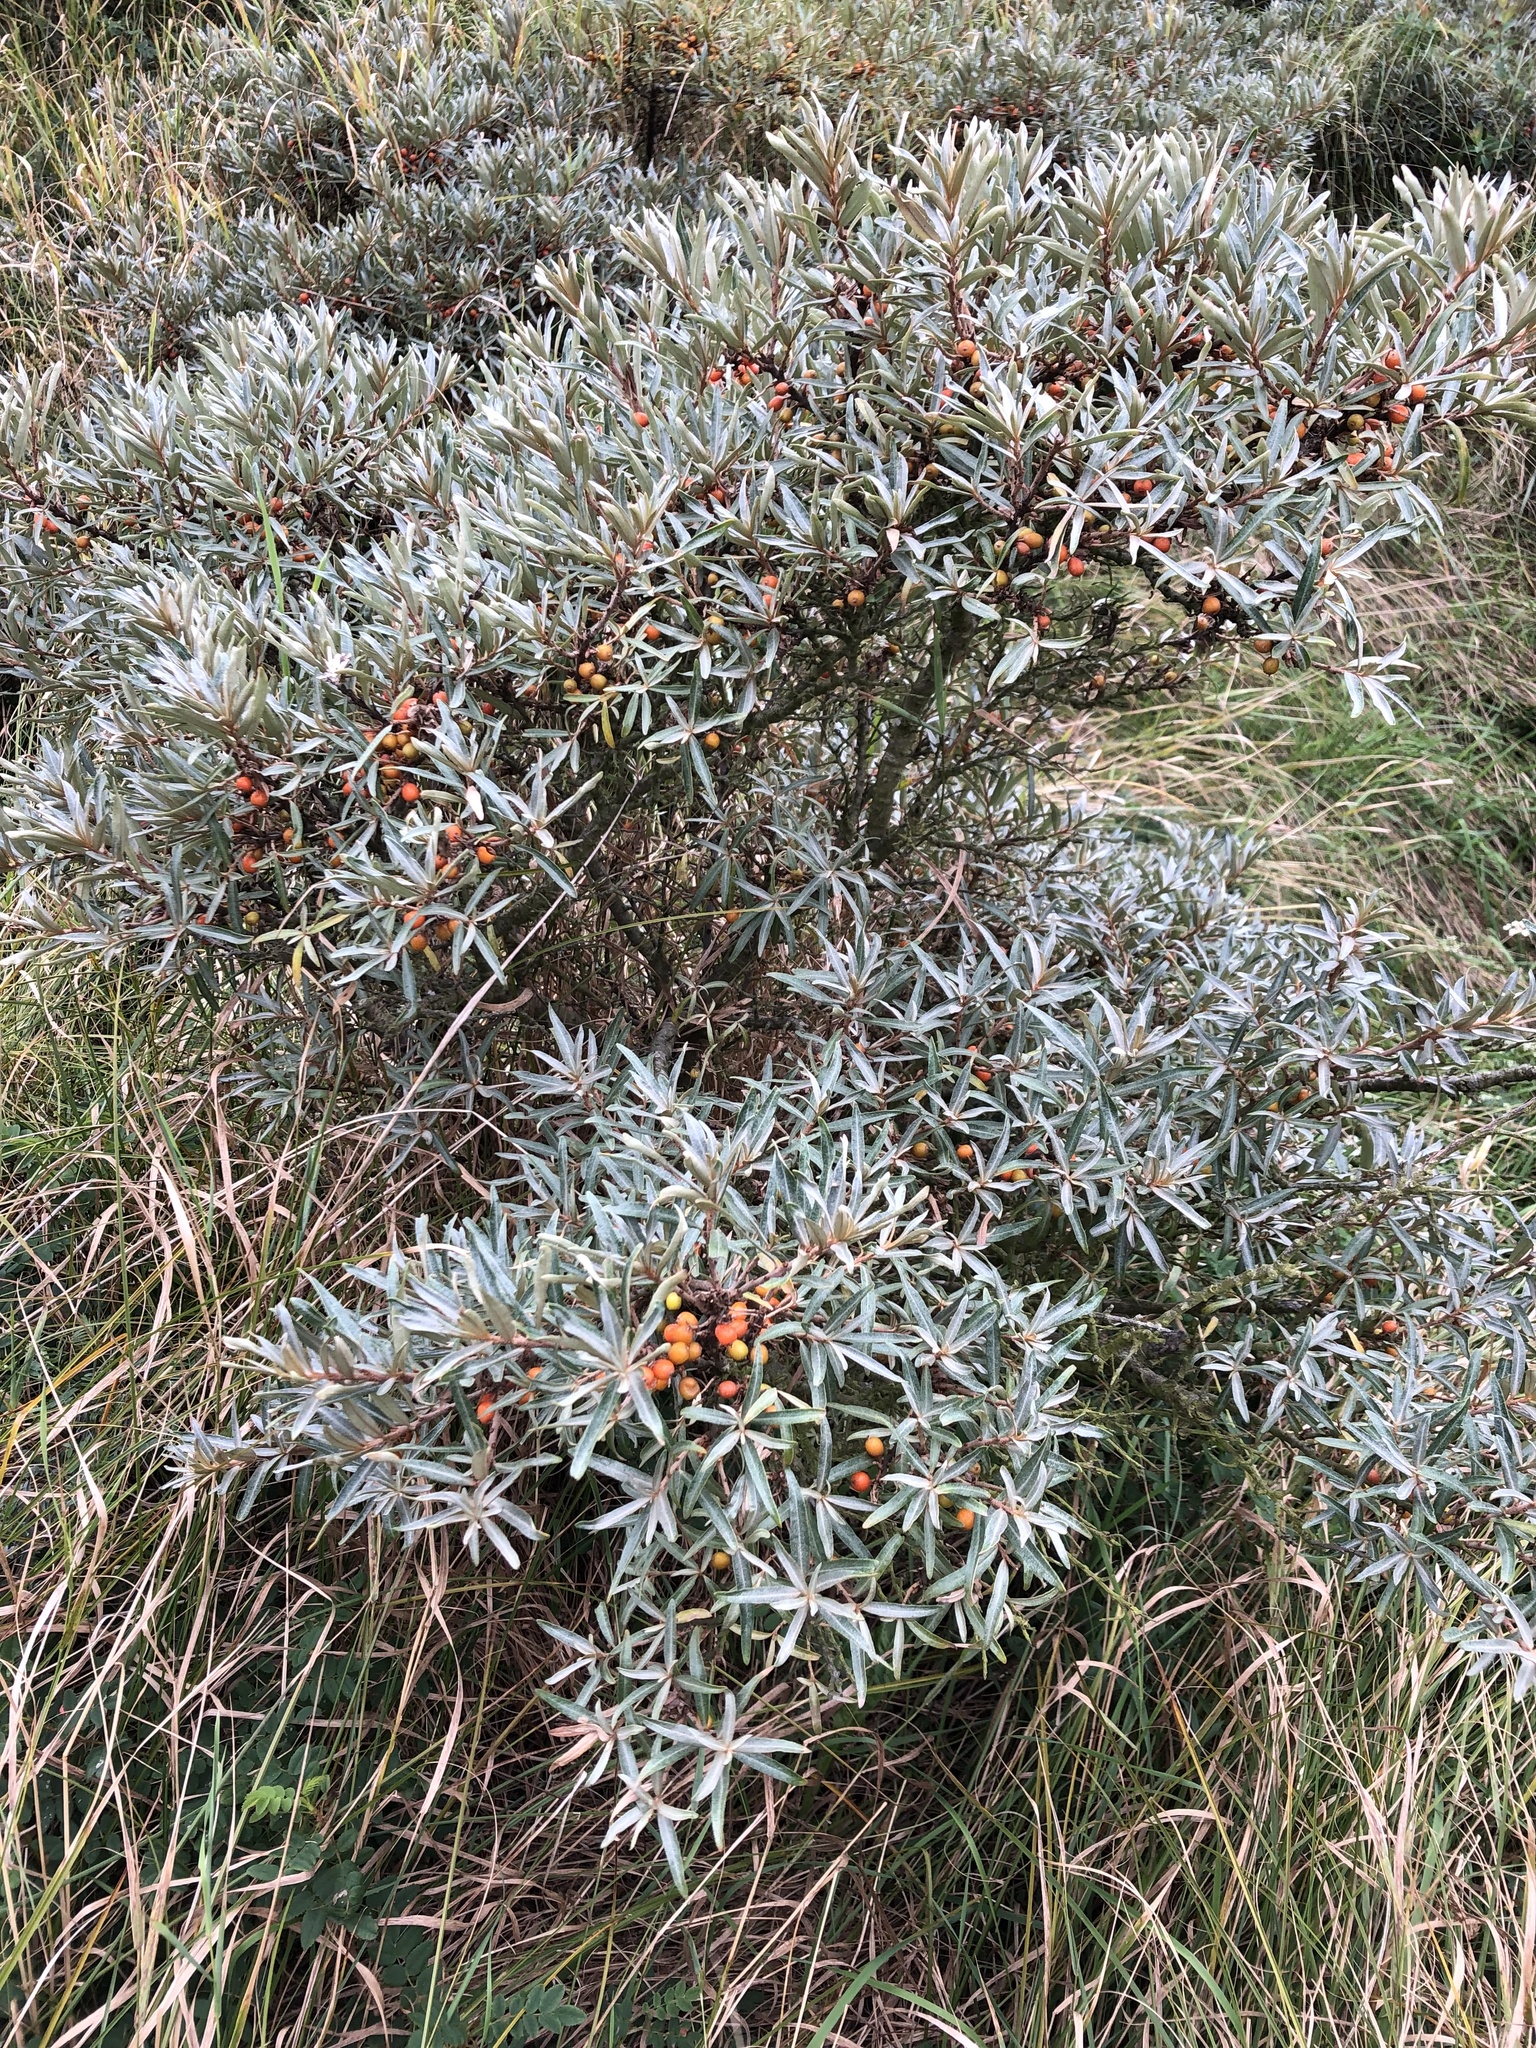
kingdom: Plantae
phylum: Tracheophyta
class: Magnoliopsida
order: Rosales
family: Elaeagnaceae
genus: Hippophae
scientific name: Hippophae rhamnoides
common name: Sea-buckthorn
